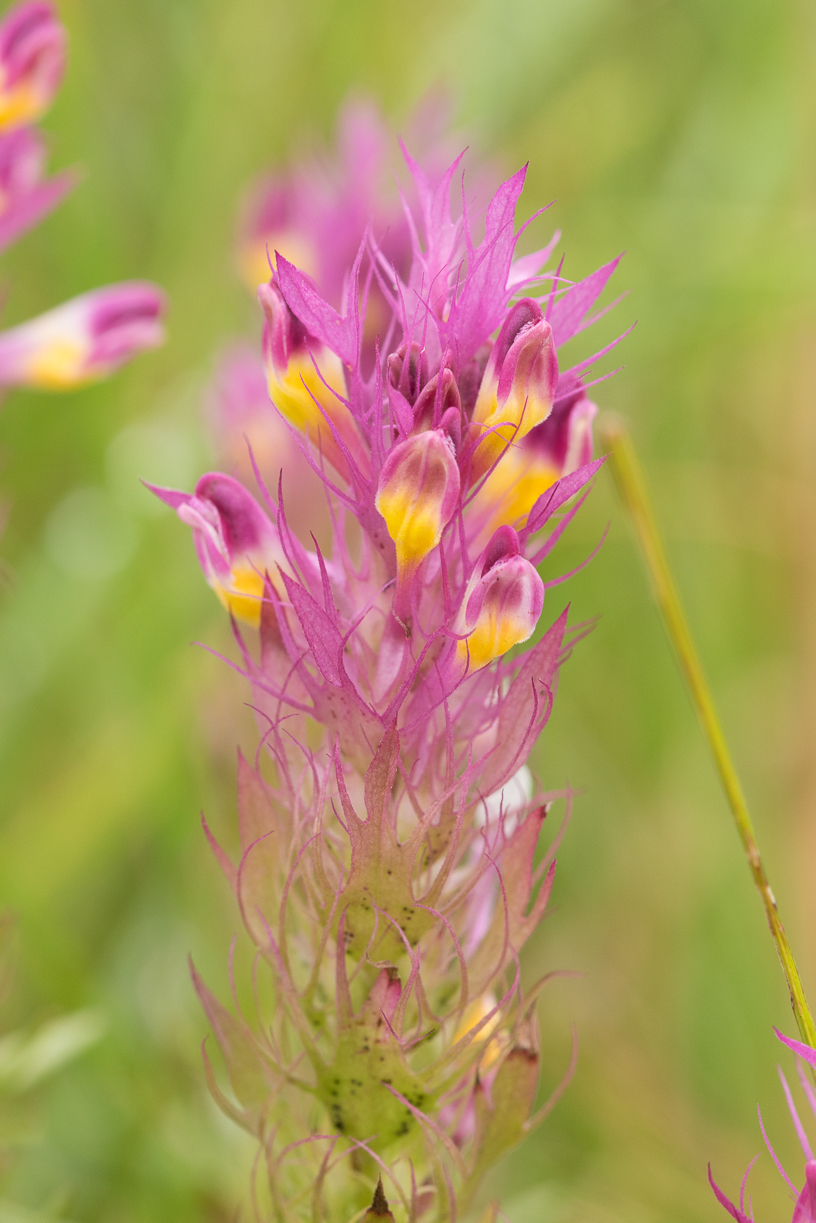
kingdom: Plantae
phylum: Tracheophyta
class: Magnoliopsida
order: Lamiales
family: Orobanchaceae
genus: Melampyrum
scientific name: Melampyrum arvense
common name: Field cow-wheat
